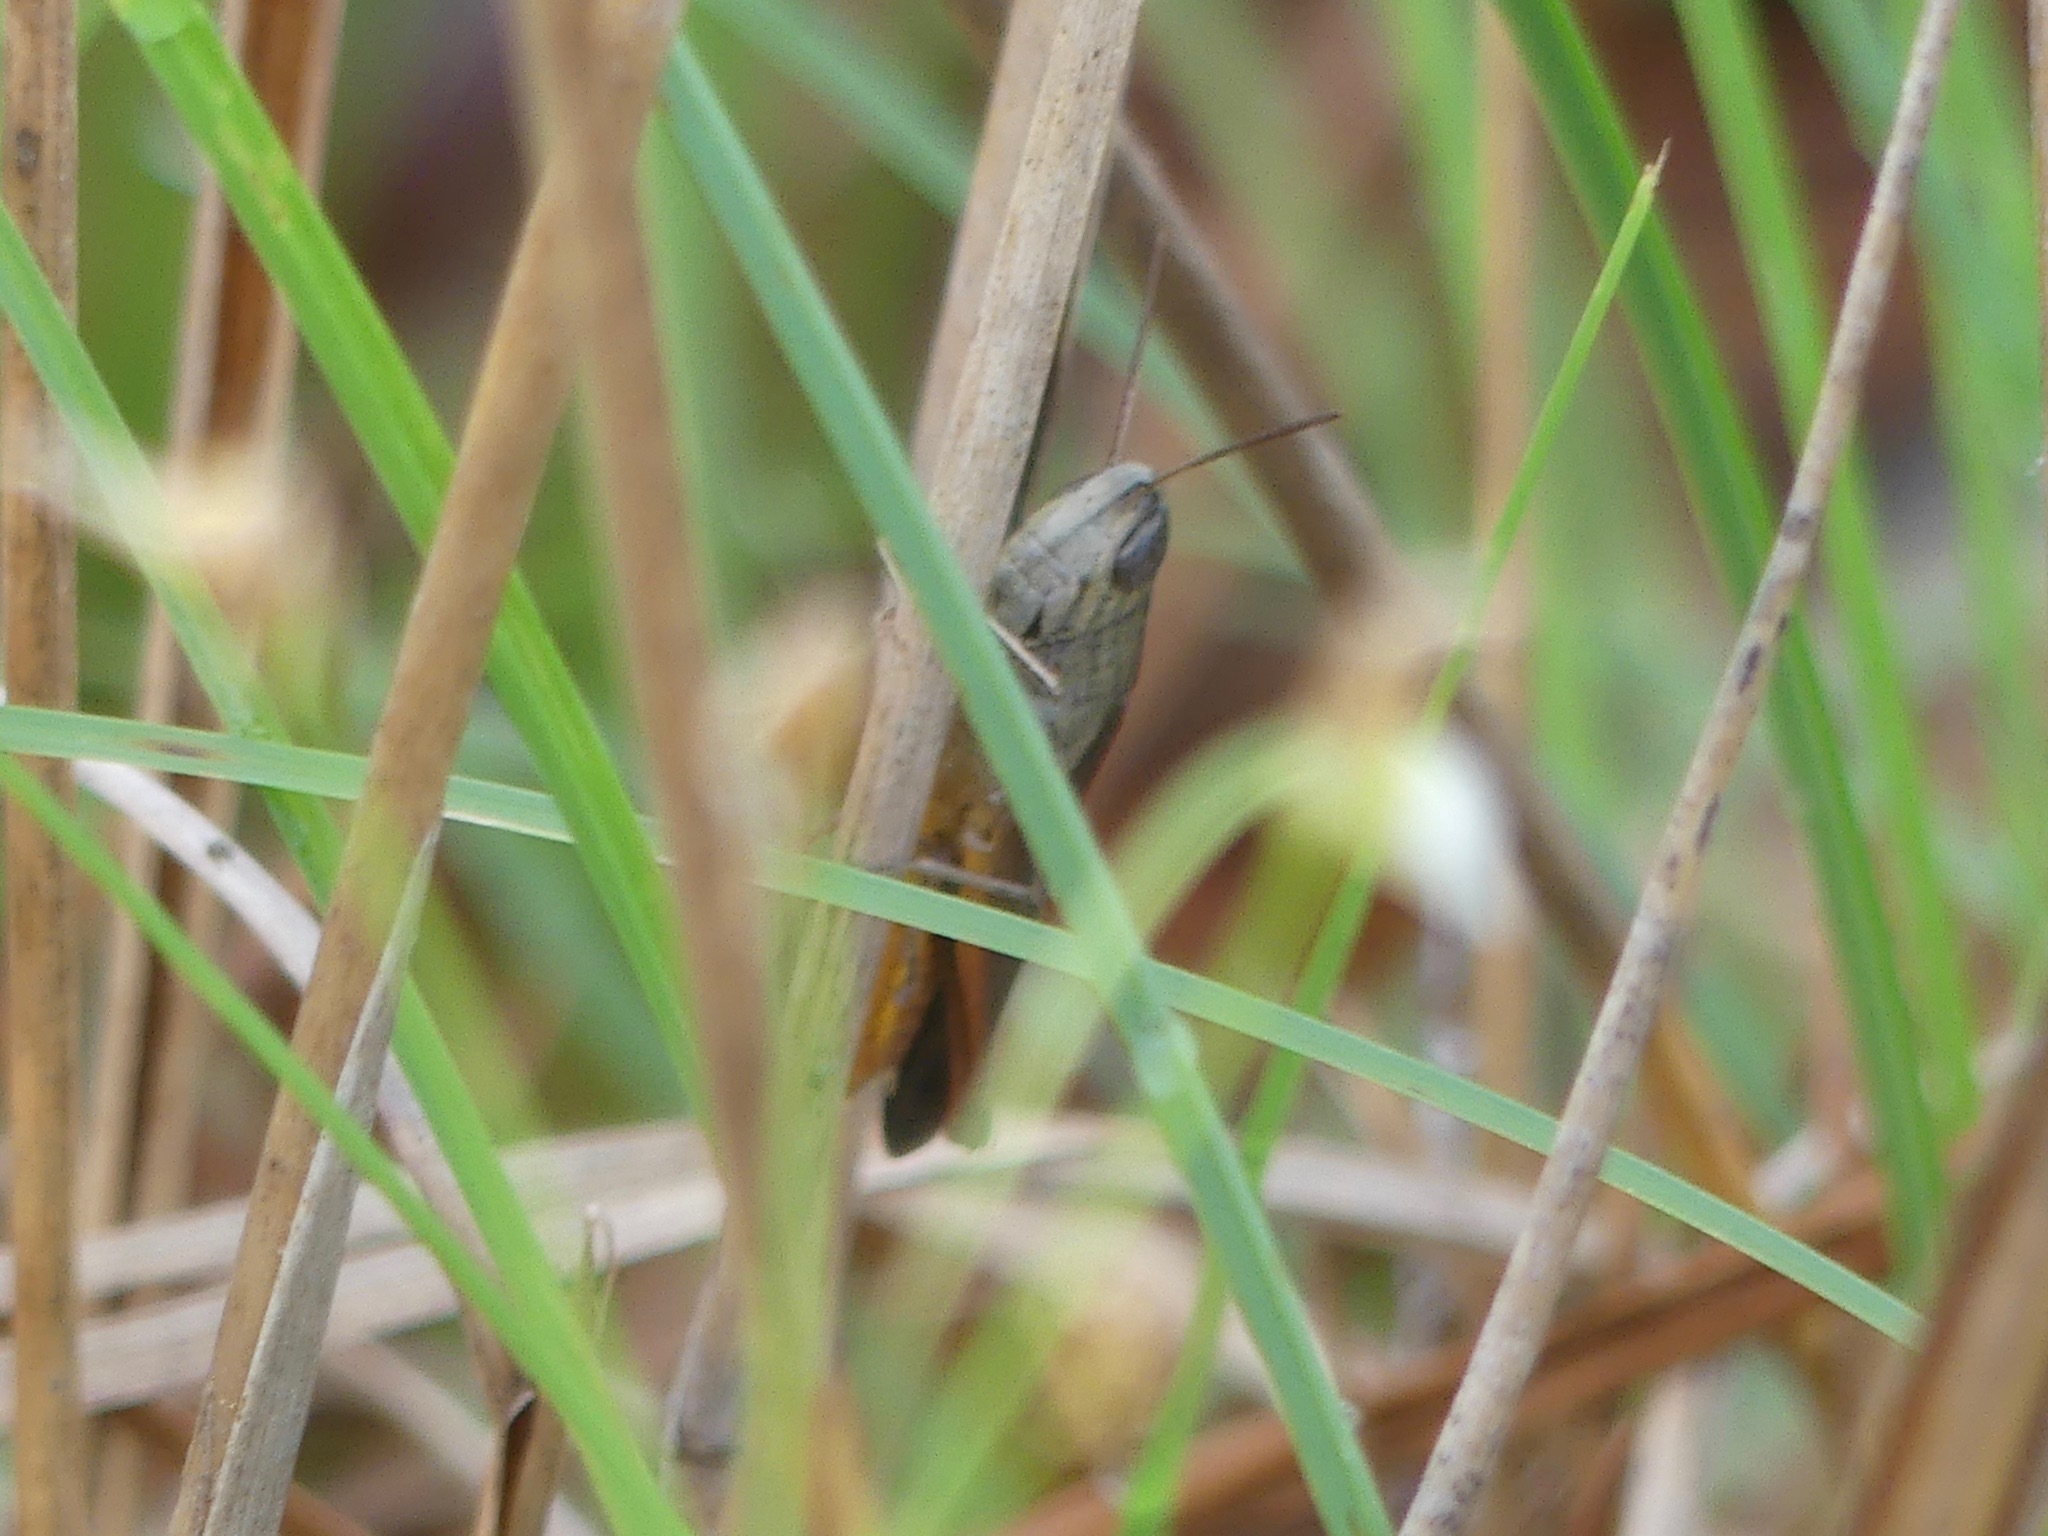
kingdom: Animalia
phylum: Arthropoda
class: Insecta
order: Orthoptera
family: Acrididae
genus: Amblytropidia
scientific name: Amblytropidia mysteca
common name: Brown winter grasshopper
